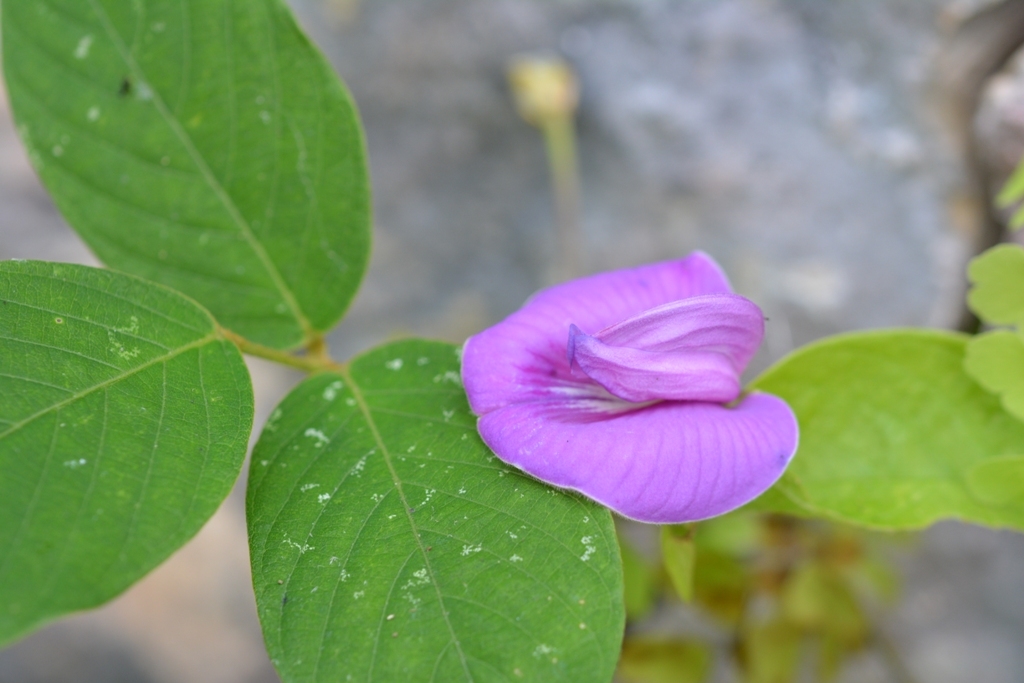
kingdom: Plantae
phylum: Tracheophyta
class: Magnoliopsida
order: Fabales
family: Fabaceae
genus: Centrosema
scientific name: Centrosema virginianum
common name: Butterfly-pea
